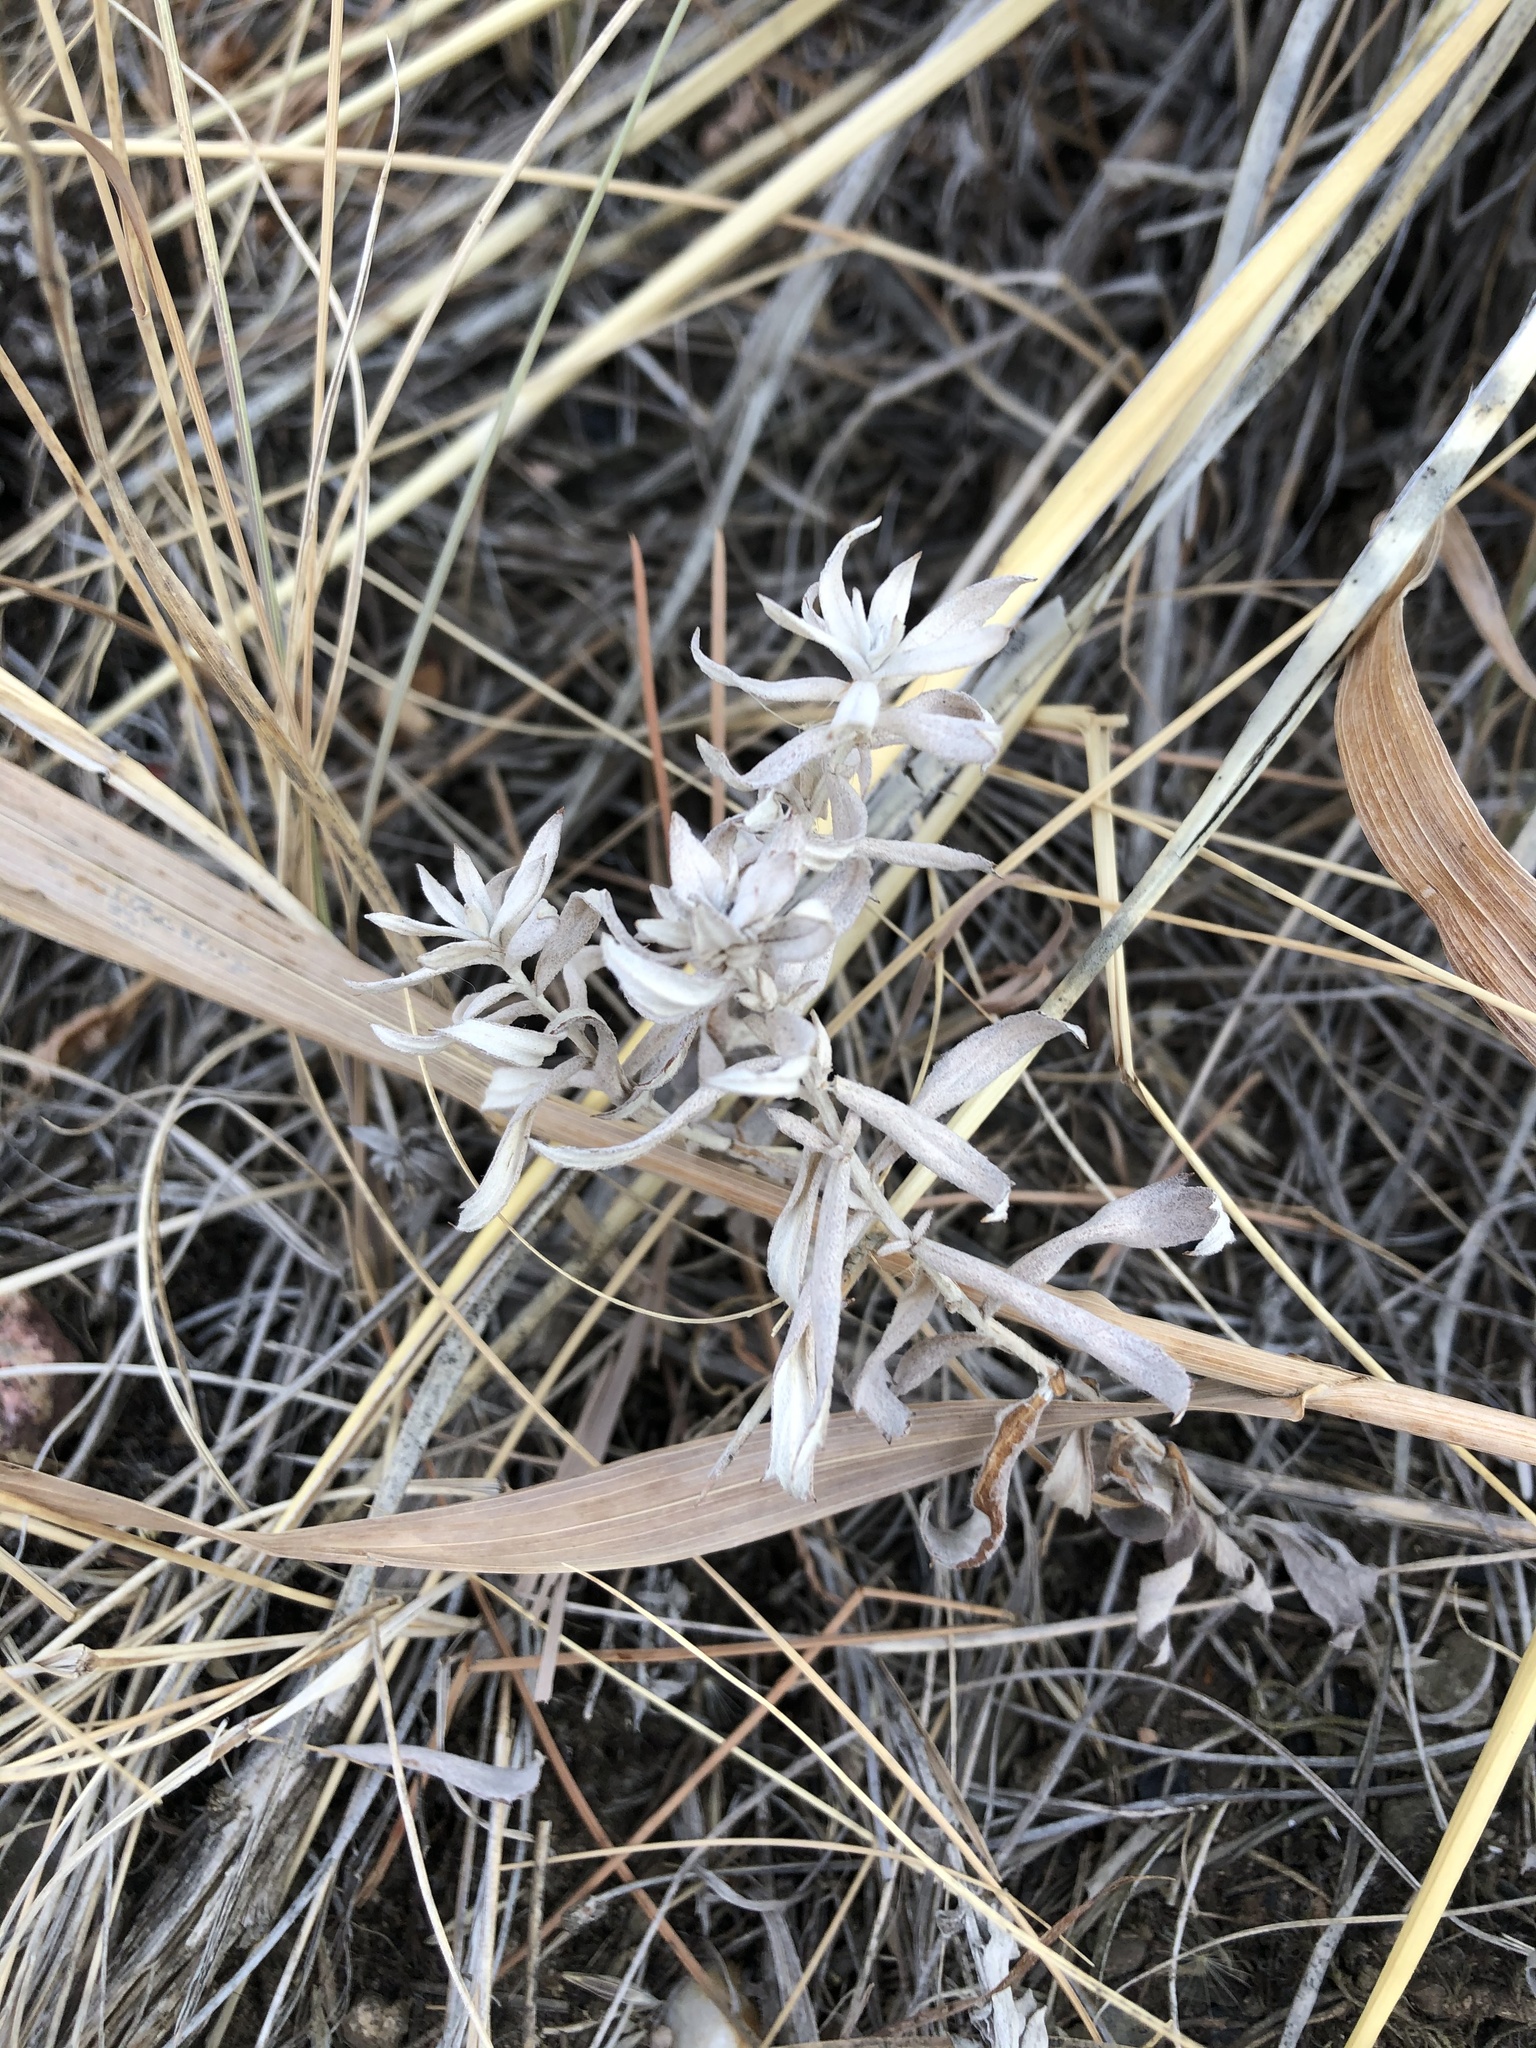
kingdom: Plantae
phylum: Tracheophyta
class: Magnoliopsida
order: Asterales
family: Asteraceae
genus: Artemisia
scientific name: Artemisia ludoviciana
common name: Western mugwort
